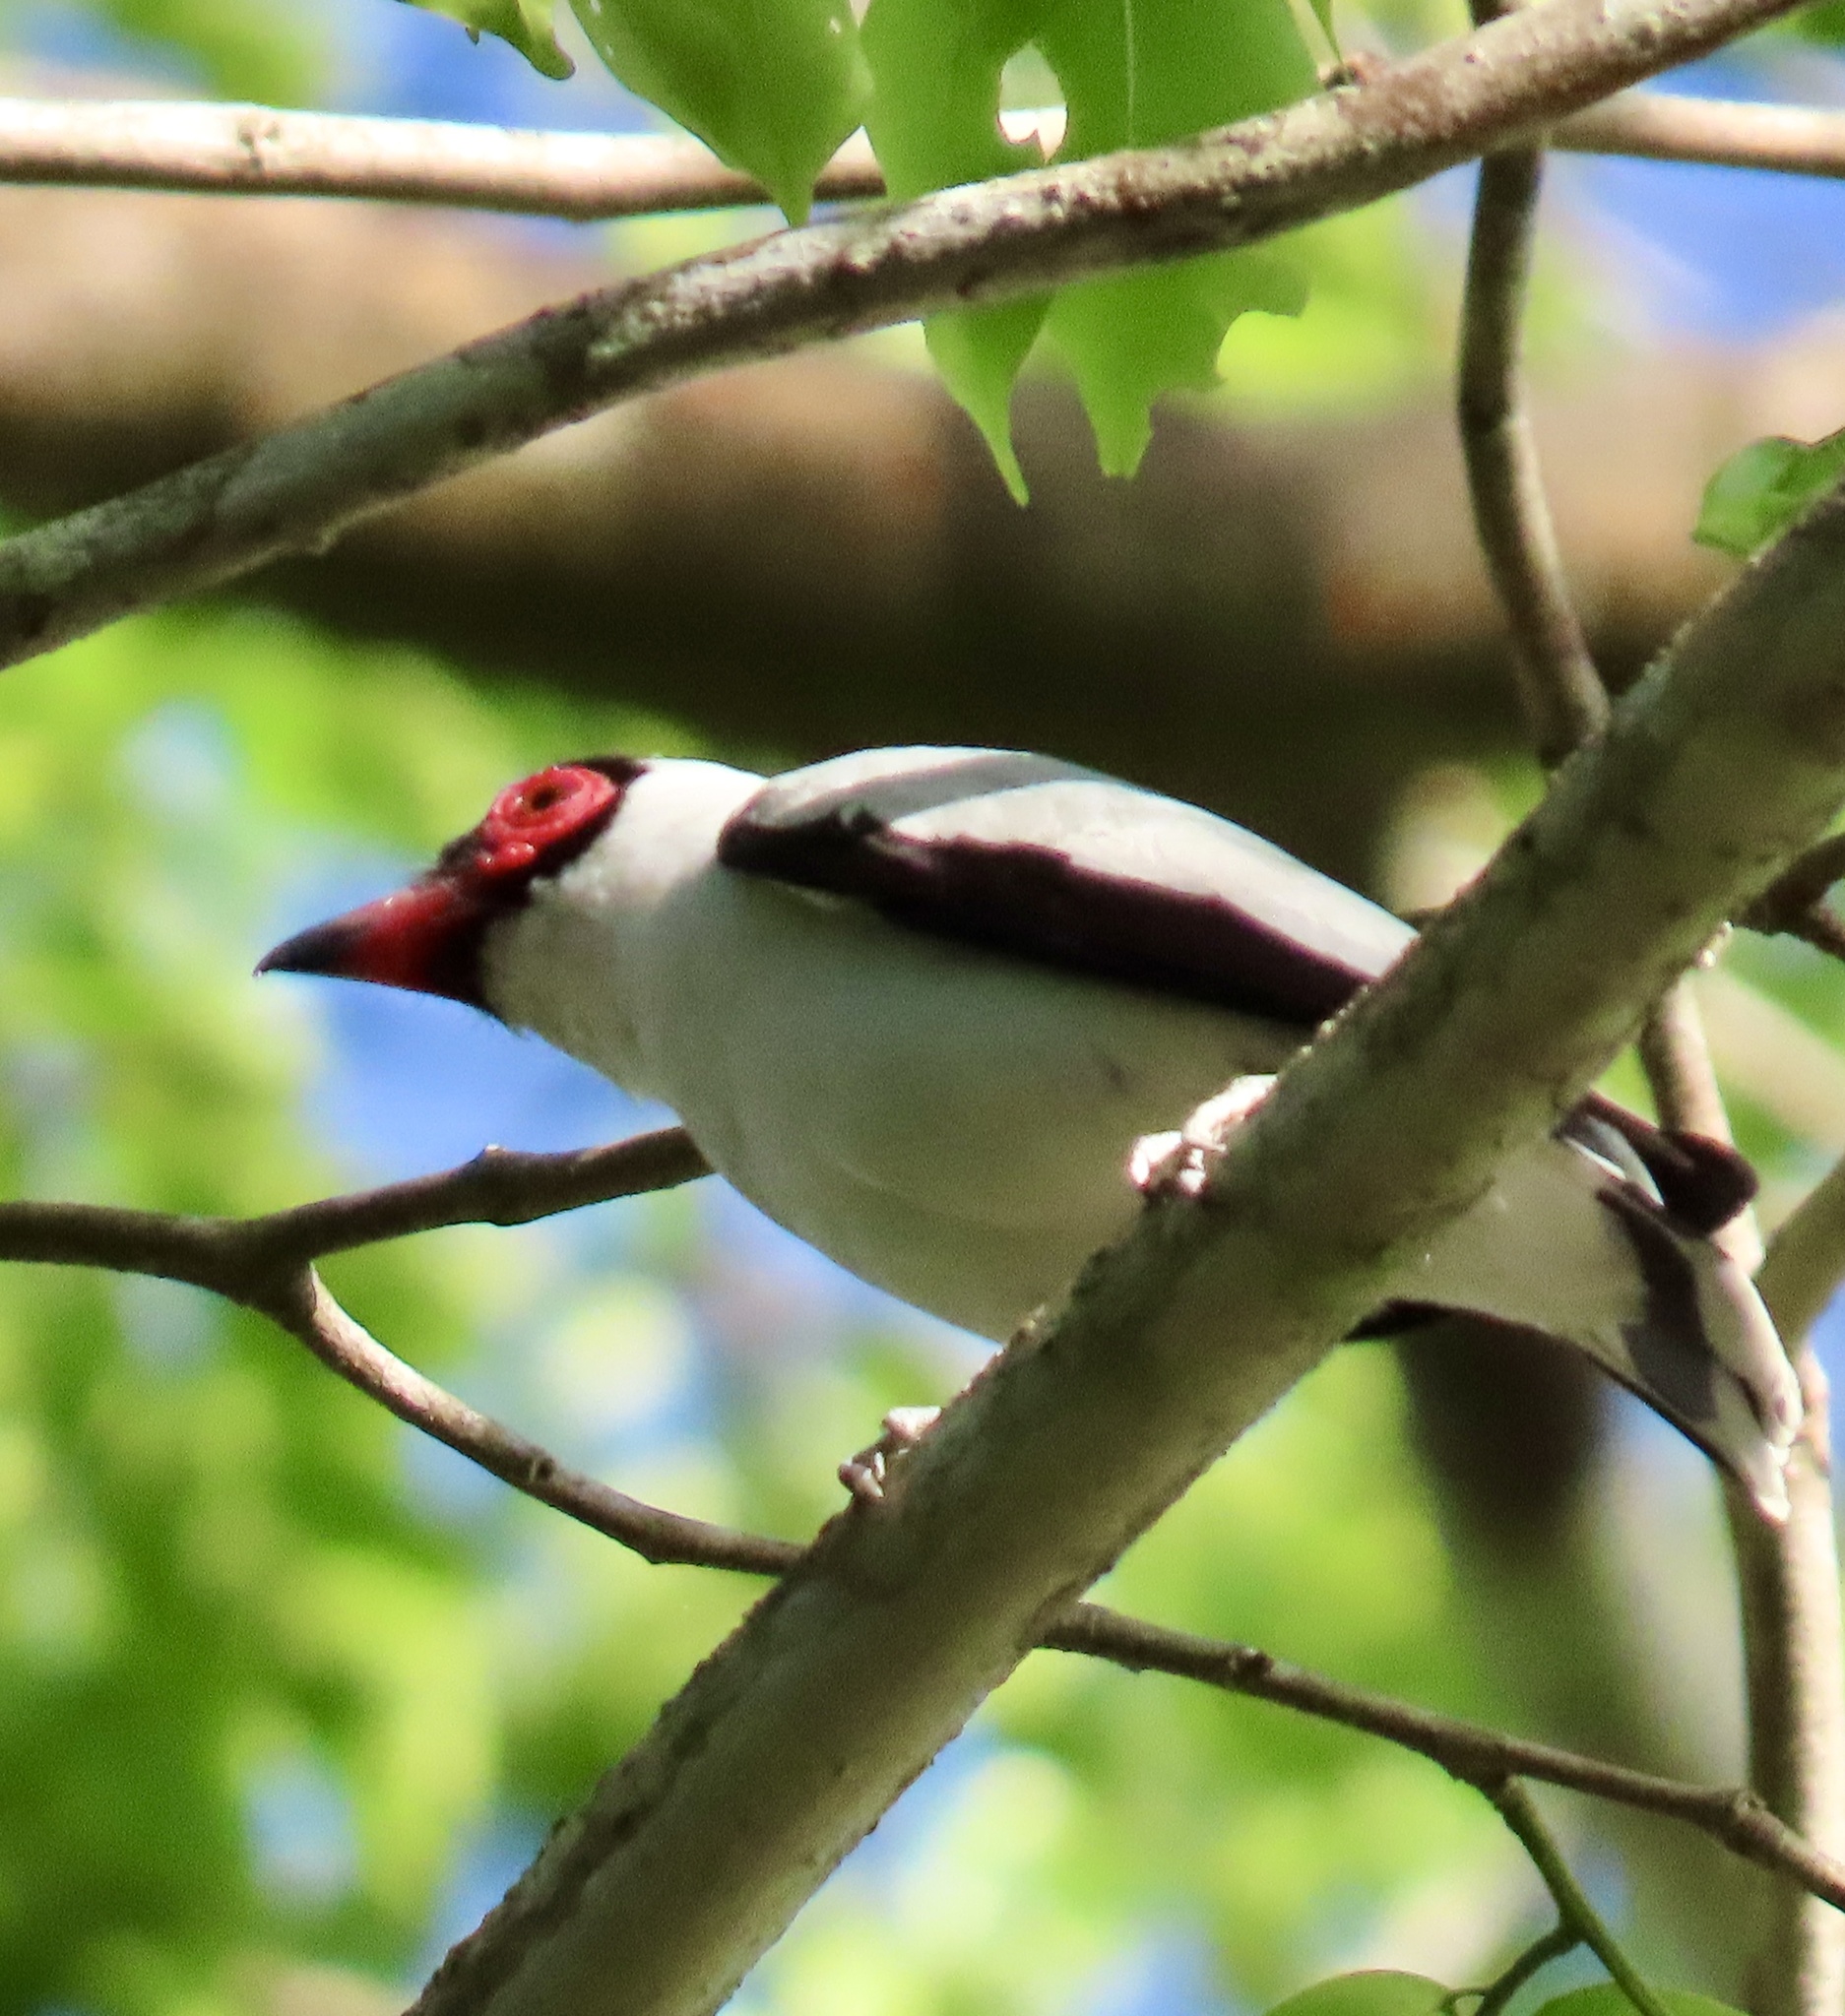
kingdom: Animalia
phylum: Chordata
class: Aves
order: Passeriformes
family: Cotingidae
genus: Tityra
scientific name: Tityra semifasciata
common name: Masked tityra
